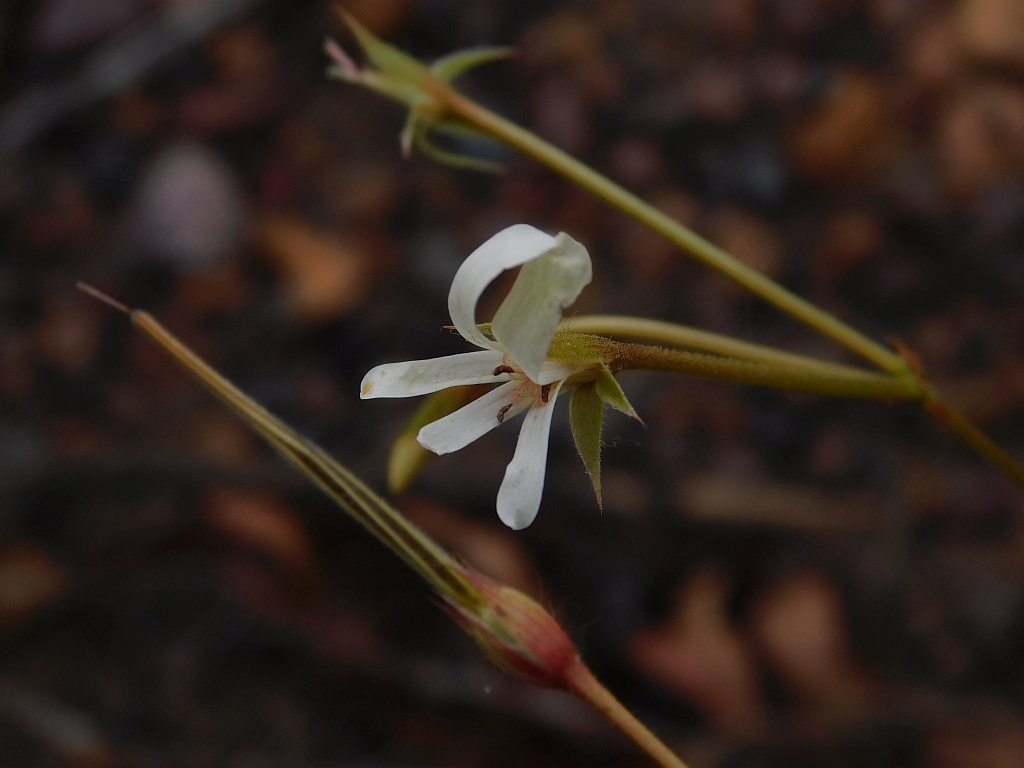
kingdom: Plantae
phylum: Tracheophyta
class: Magnoliopsida
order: Geraniales
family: Geraniaceae
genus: Pelargonium
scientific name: Pelargonium elongatum
